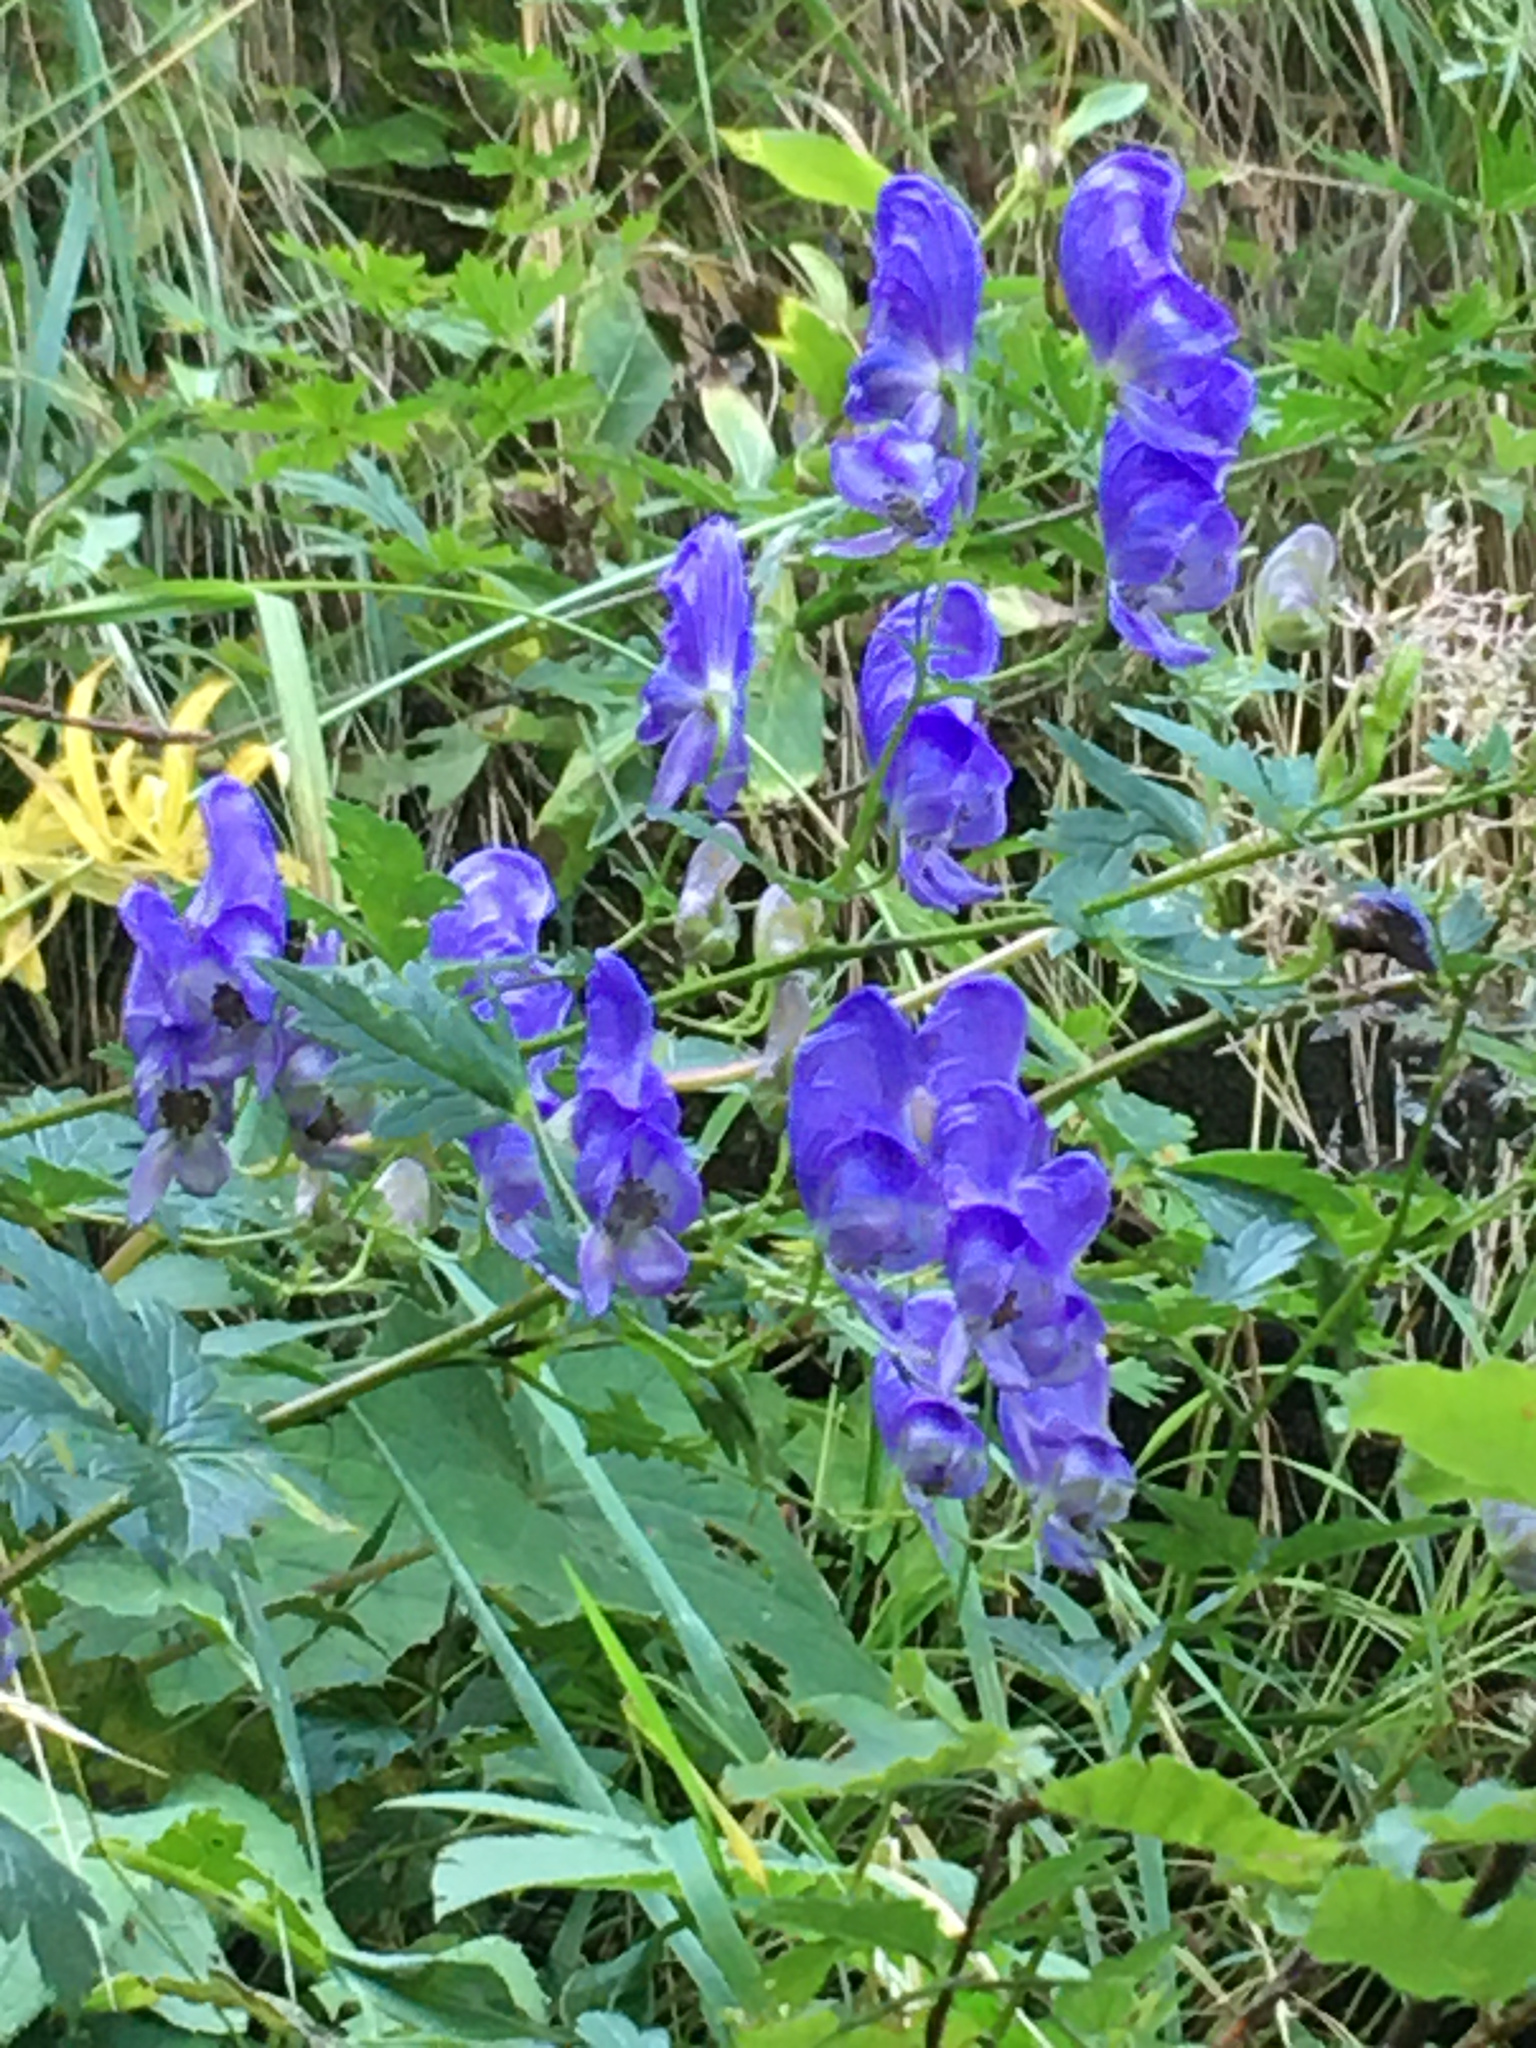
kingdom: Plantae
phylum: Tracheophyta
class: Magnoliopsida
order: Ranunculales
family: Ranunculaceae
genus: Aconitum
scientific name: Aconitum variegatum
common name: Manchurian monkshood
